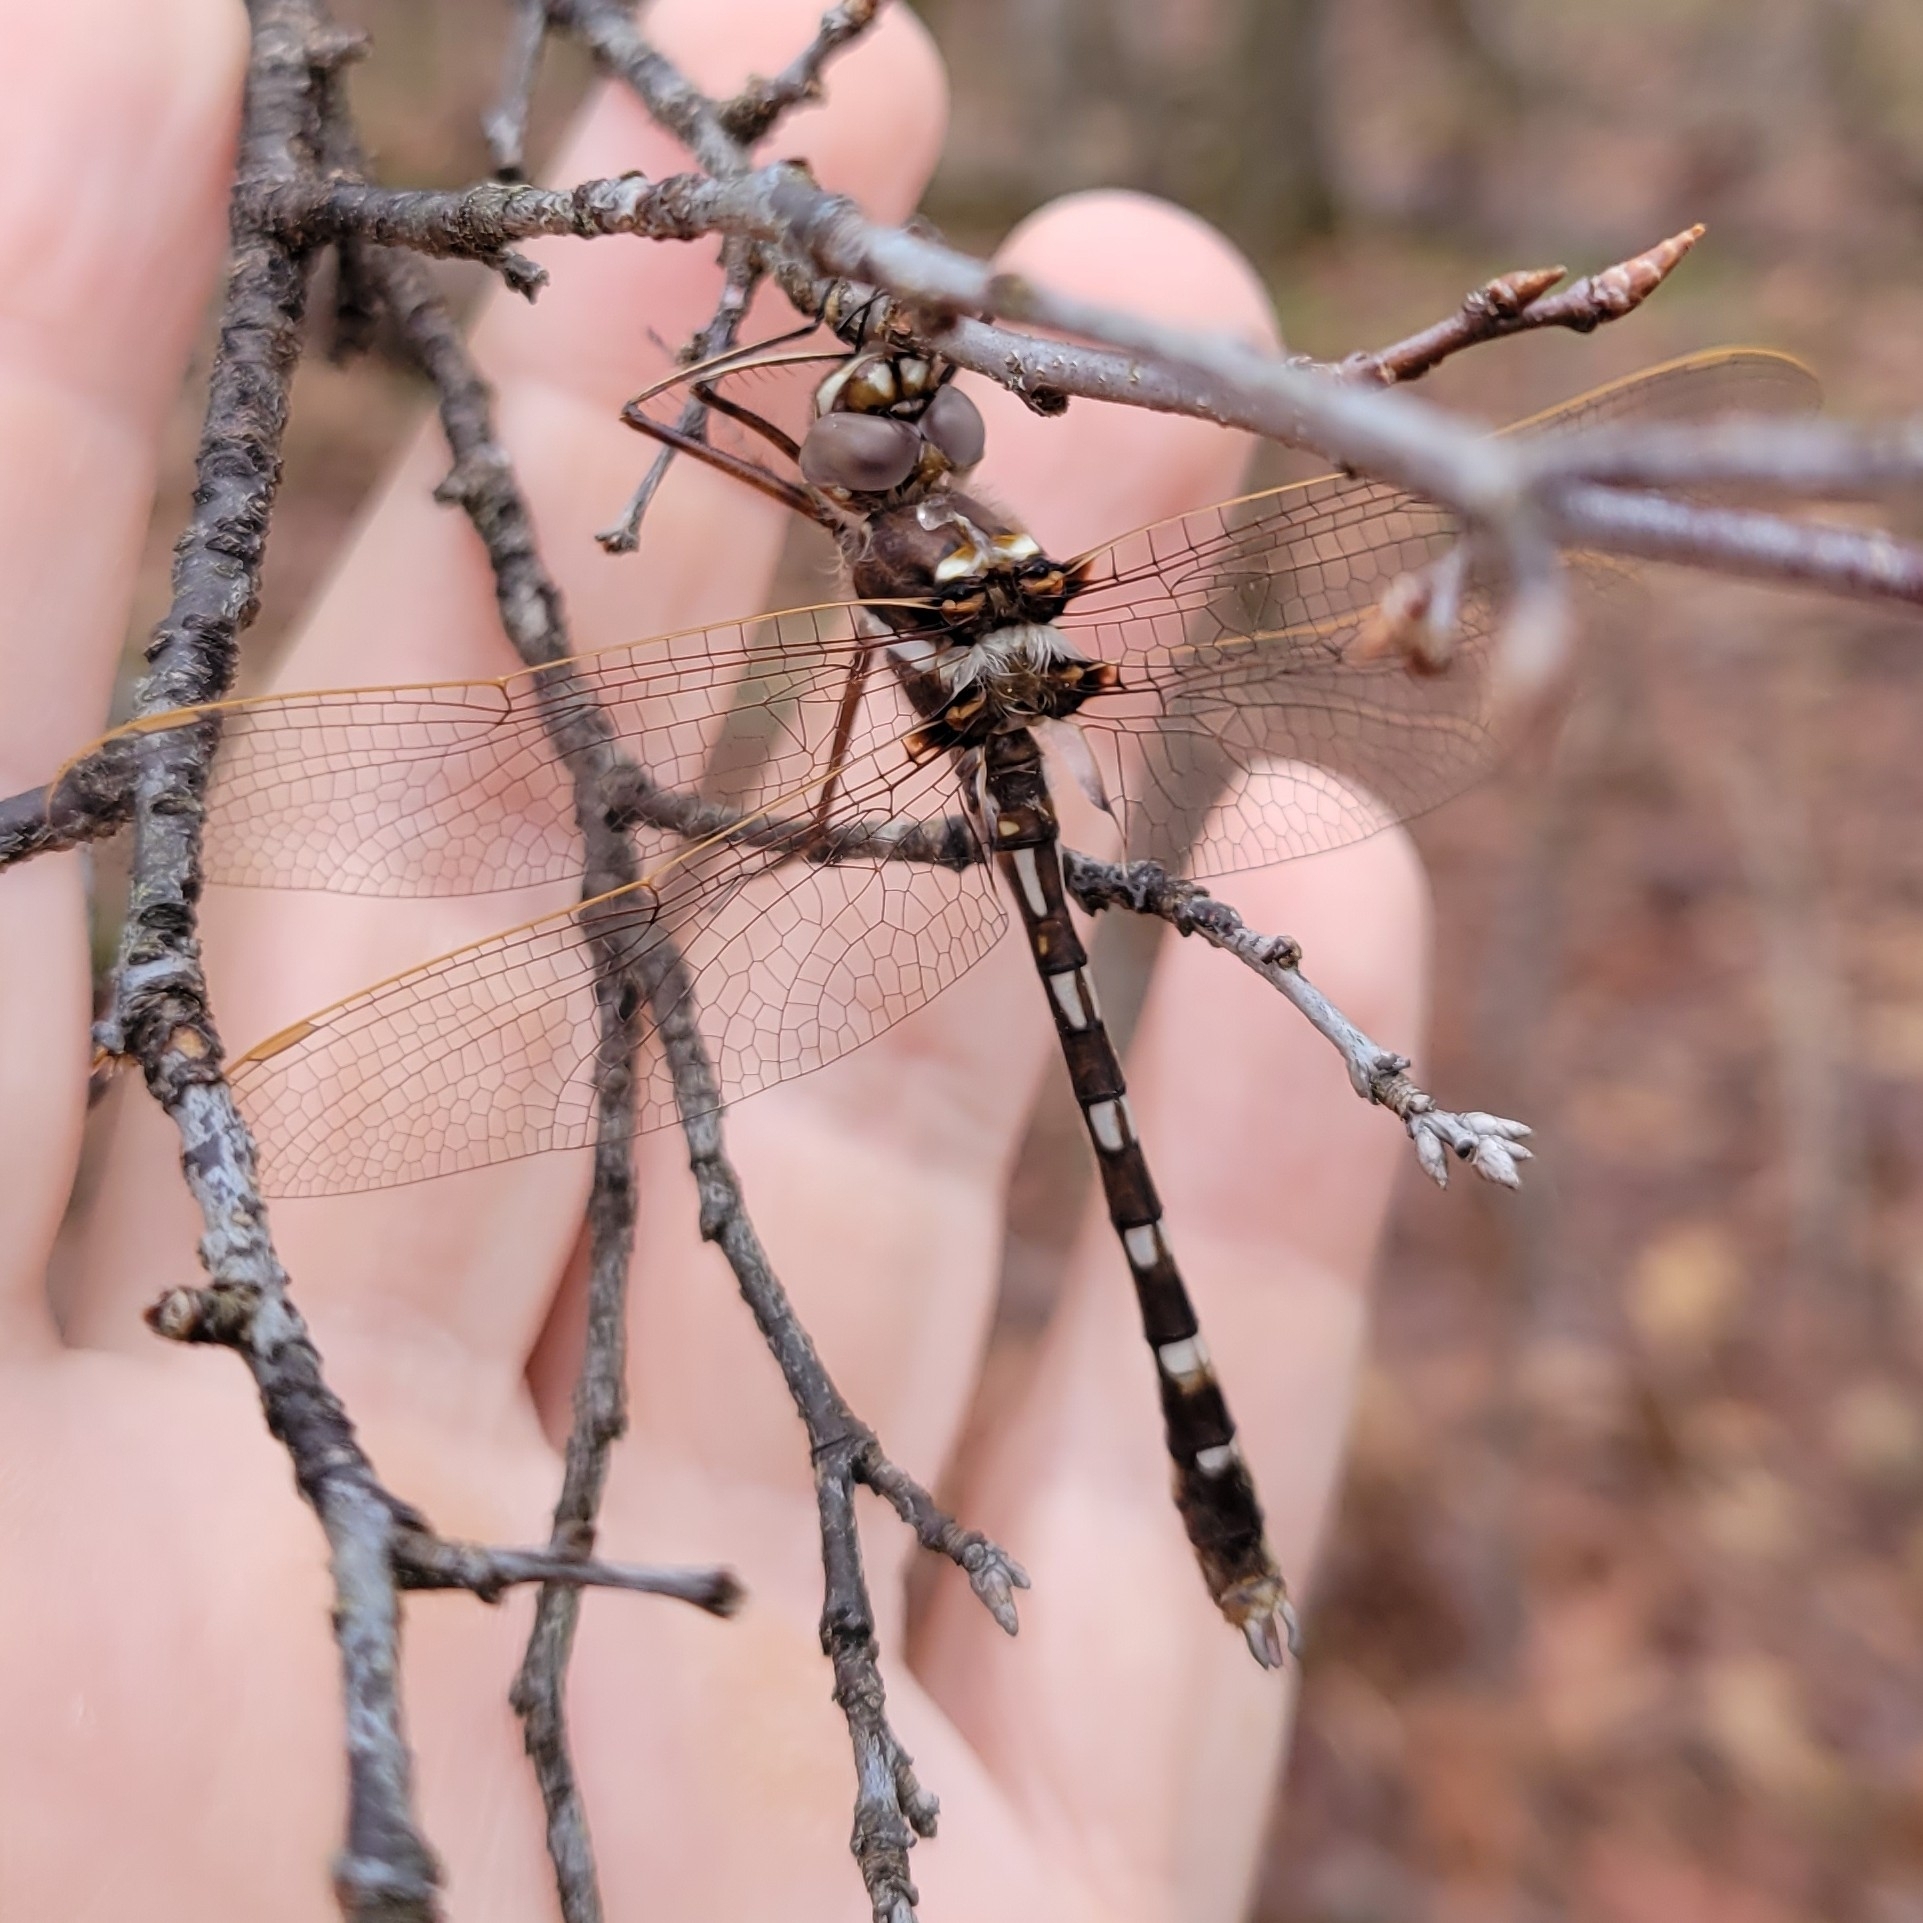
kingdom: Animalia
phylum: Arthropoda
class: Insecta
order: Odonata
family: Macromiidae
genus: Didymops
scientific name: Didymops transversa
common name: Stream cruiser
